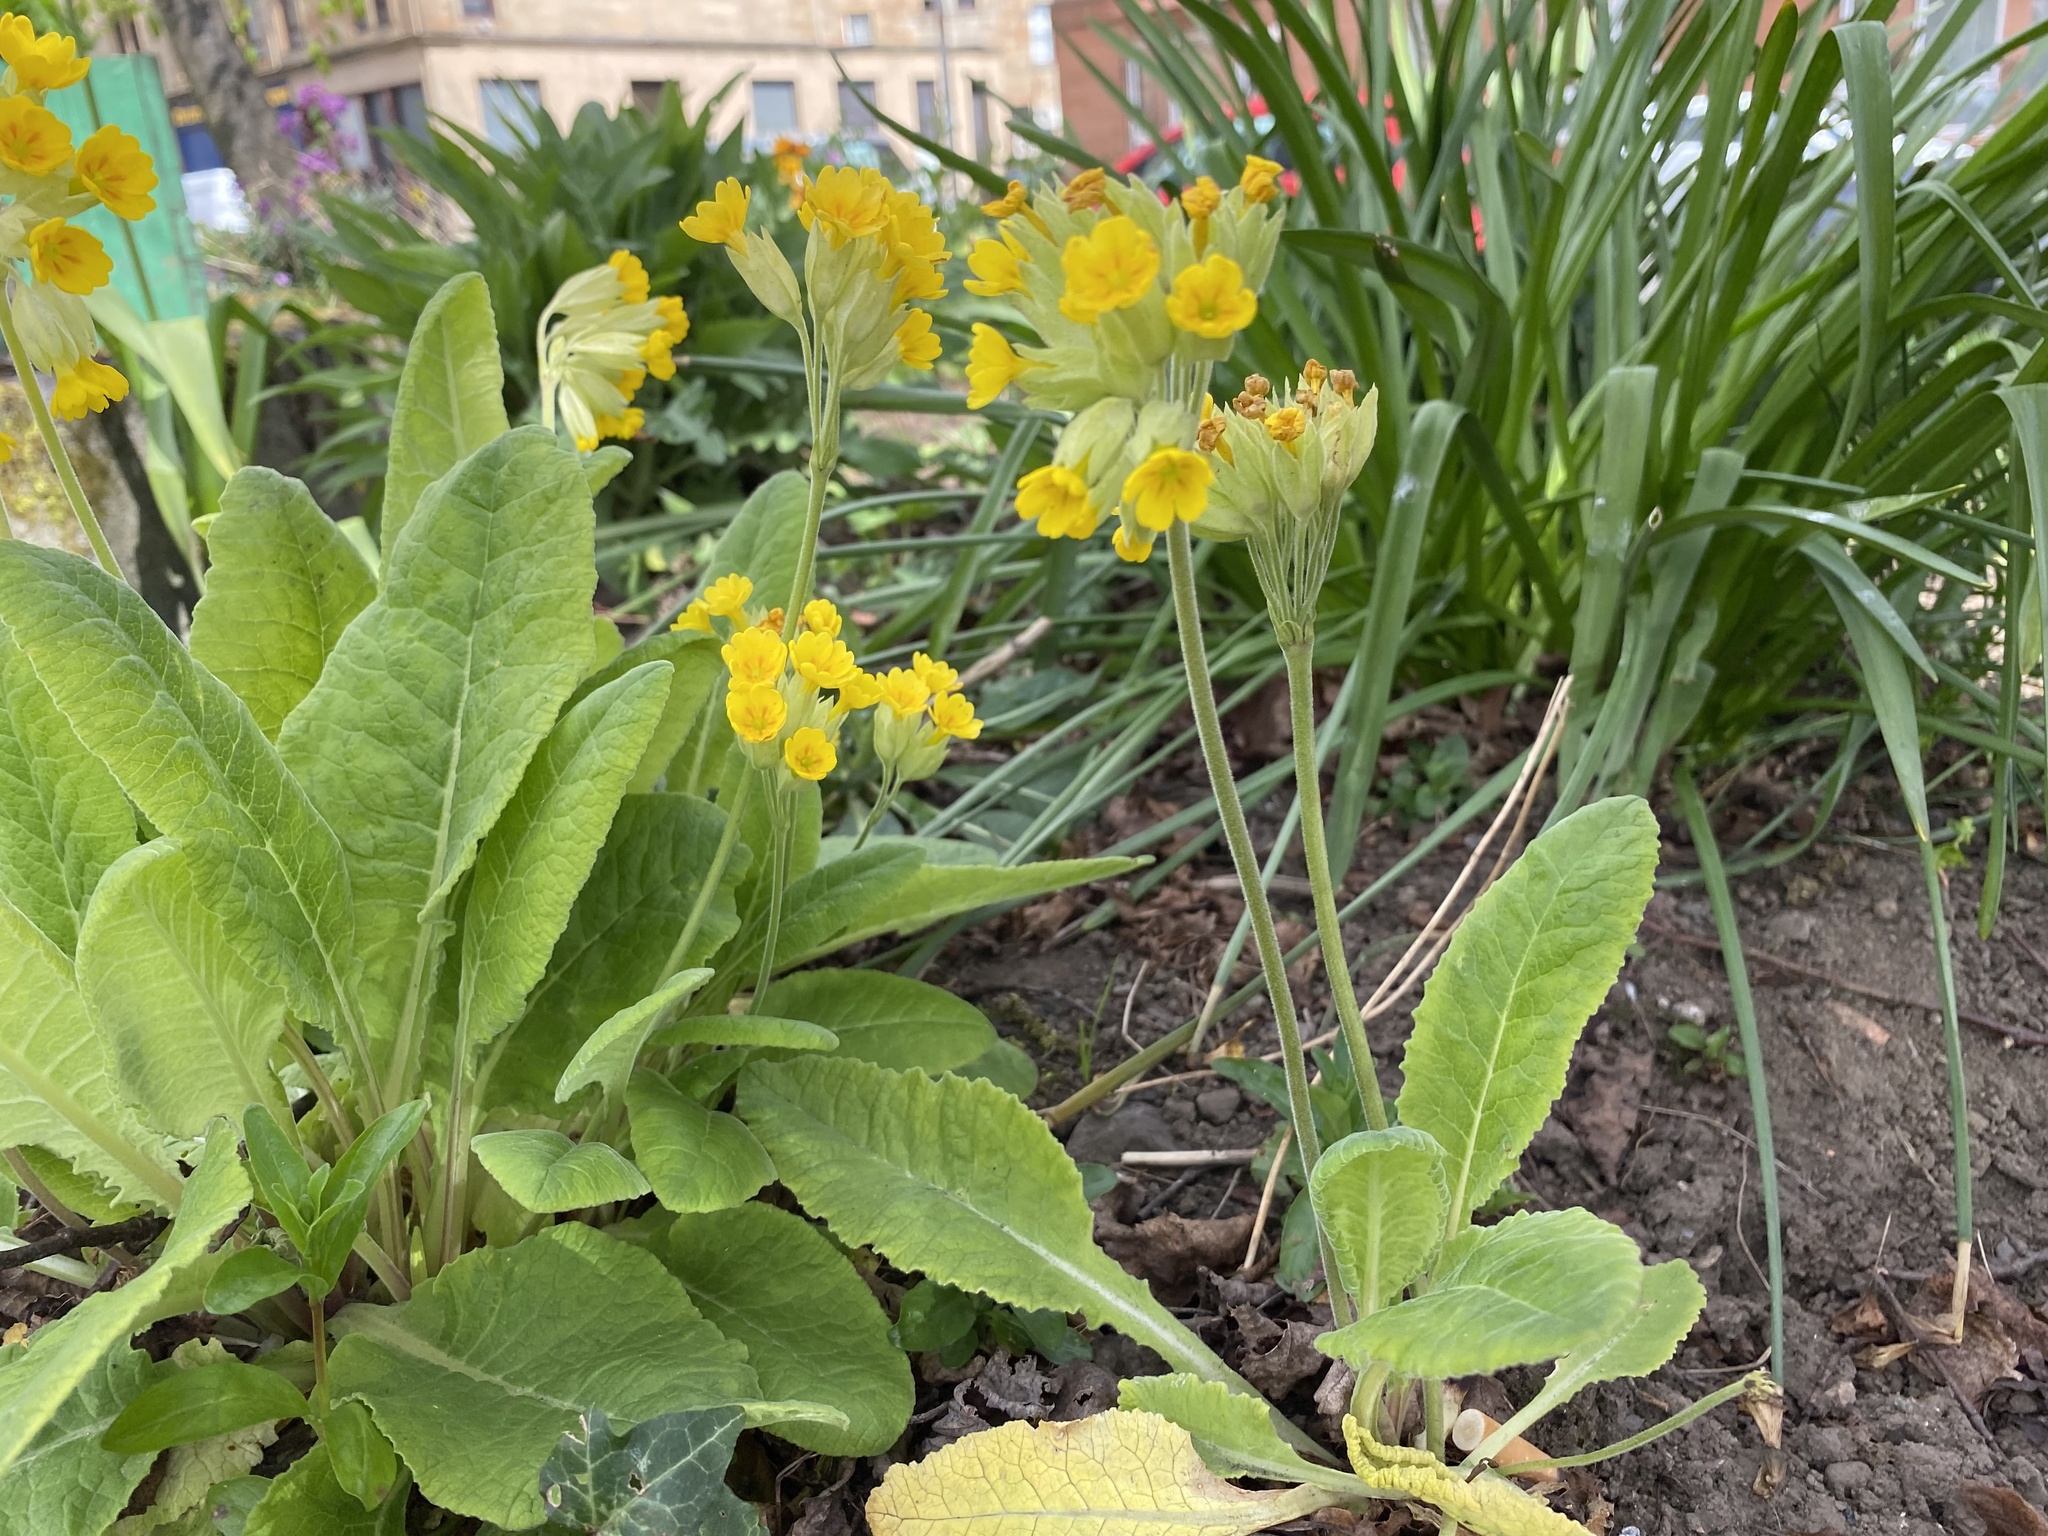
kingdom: Plantae
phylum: Tracheophyta
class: Magnoliopsida
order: Ericales
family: Primulaceae
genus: Primula
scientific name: Primula veris
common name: Cowslip
